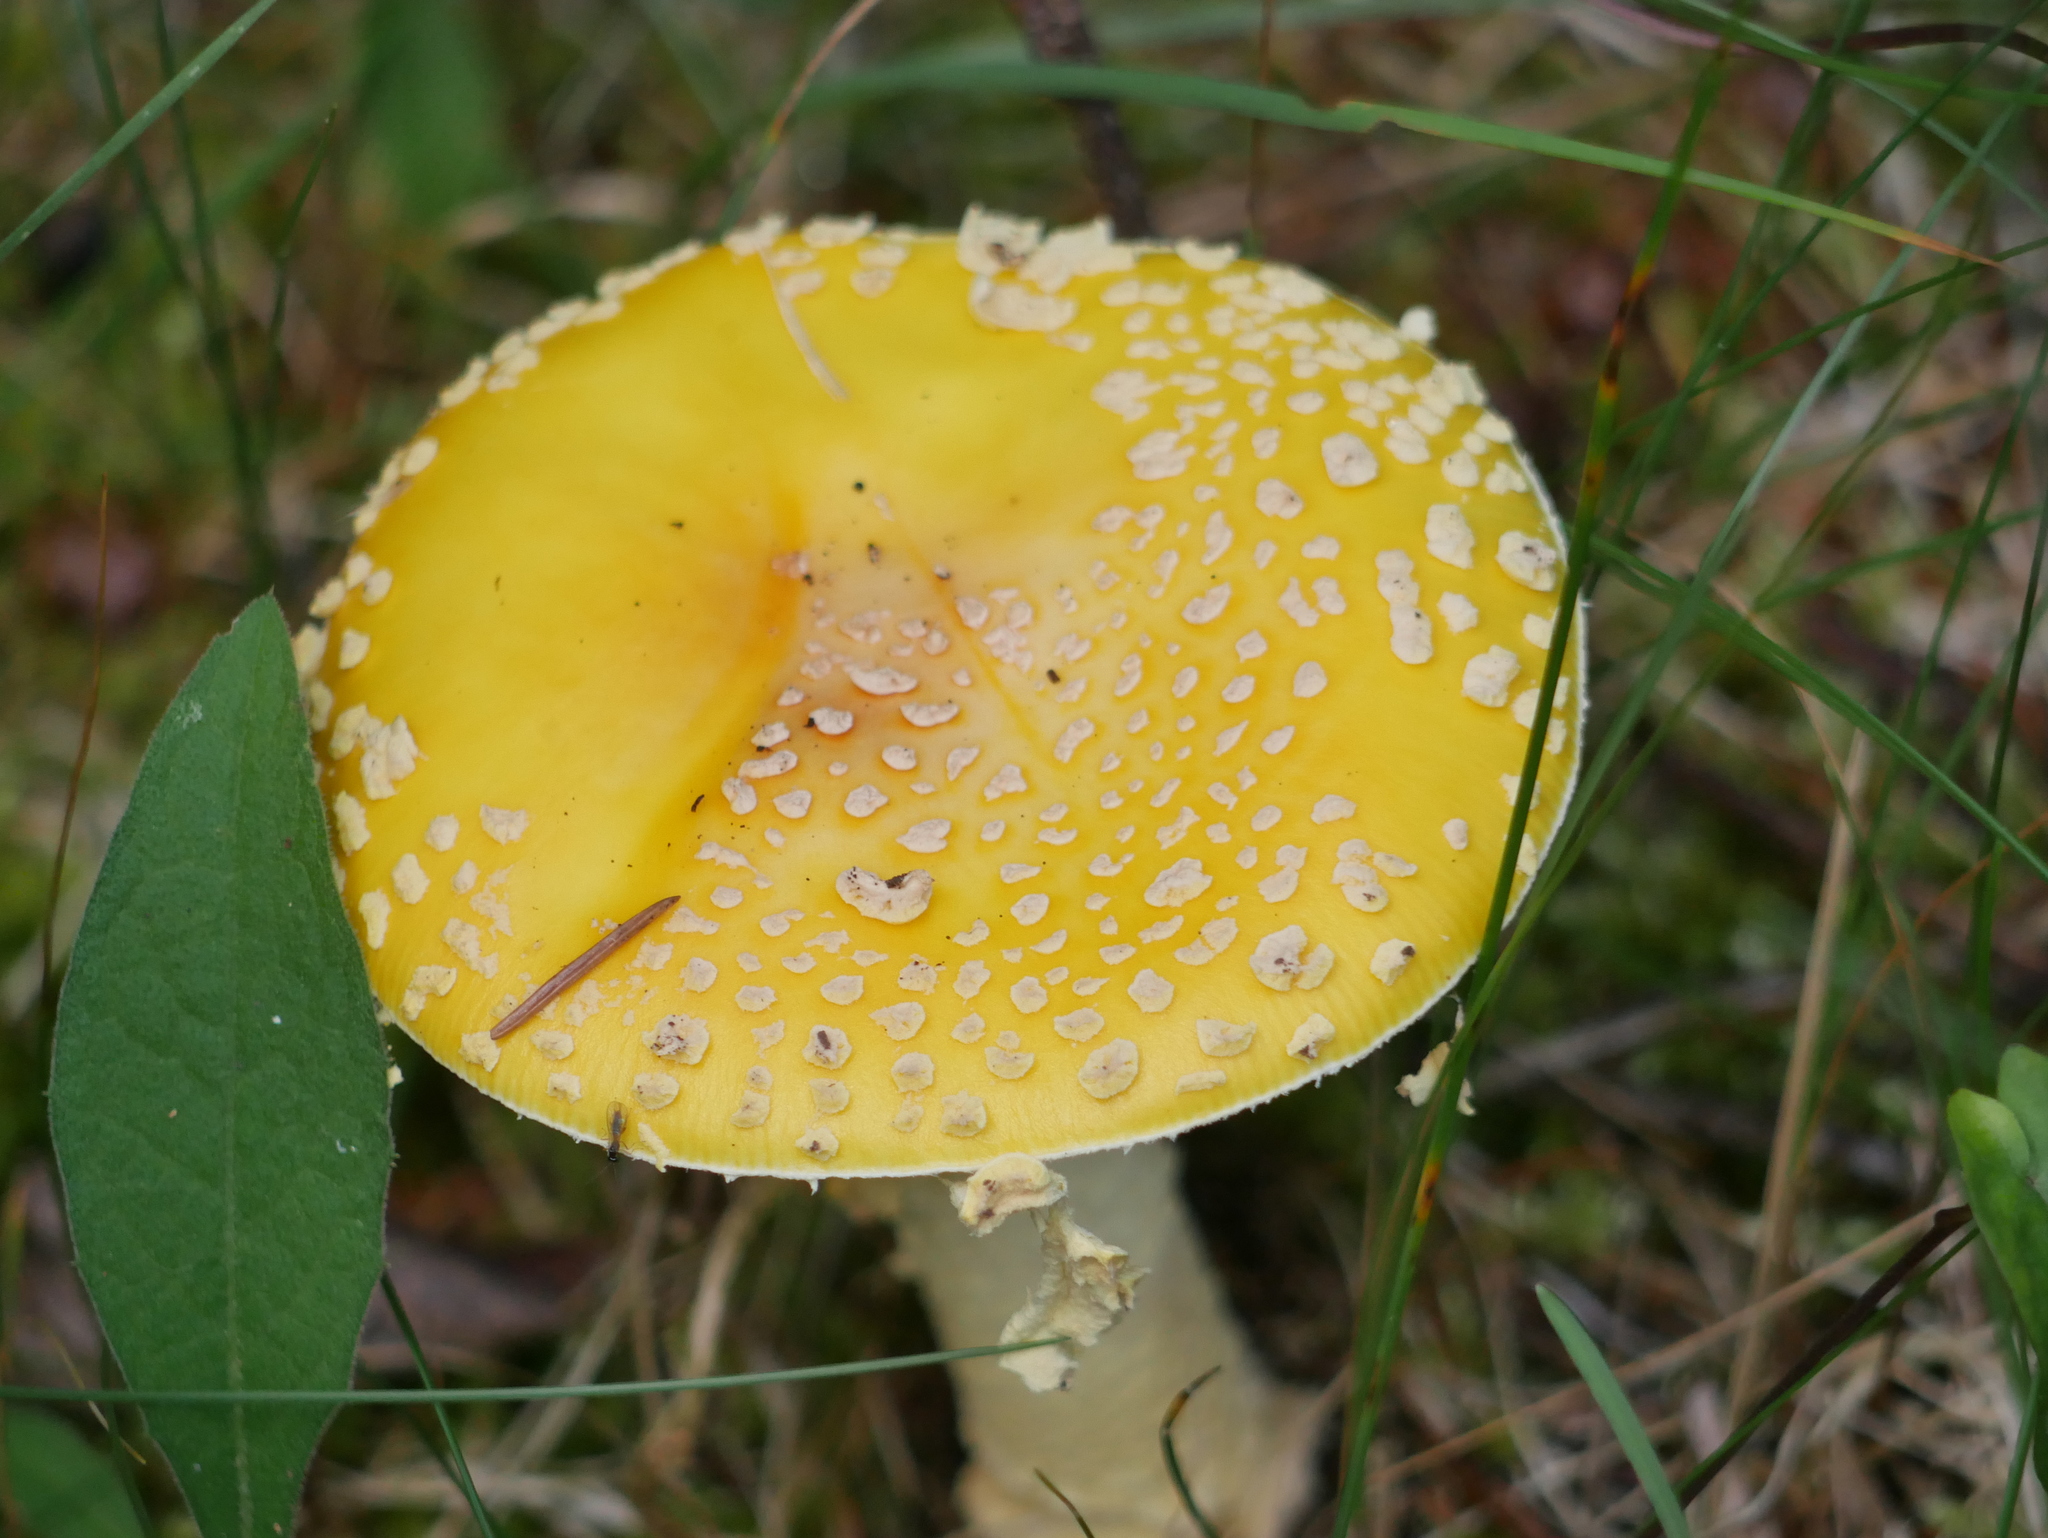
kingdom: Fungi
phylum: Basidiomycota
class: Agaricomycetes
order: Agaricales
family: Amanitaceae
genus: Amanita
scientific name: Amanita muscaria
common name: Fly agaric
